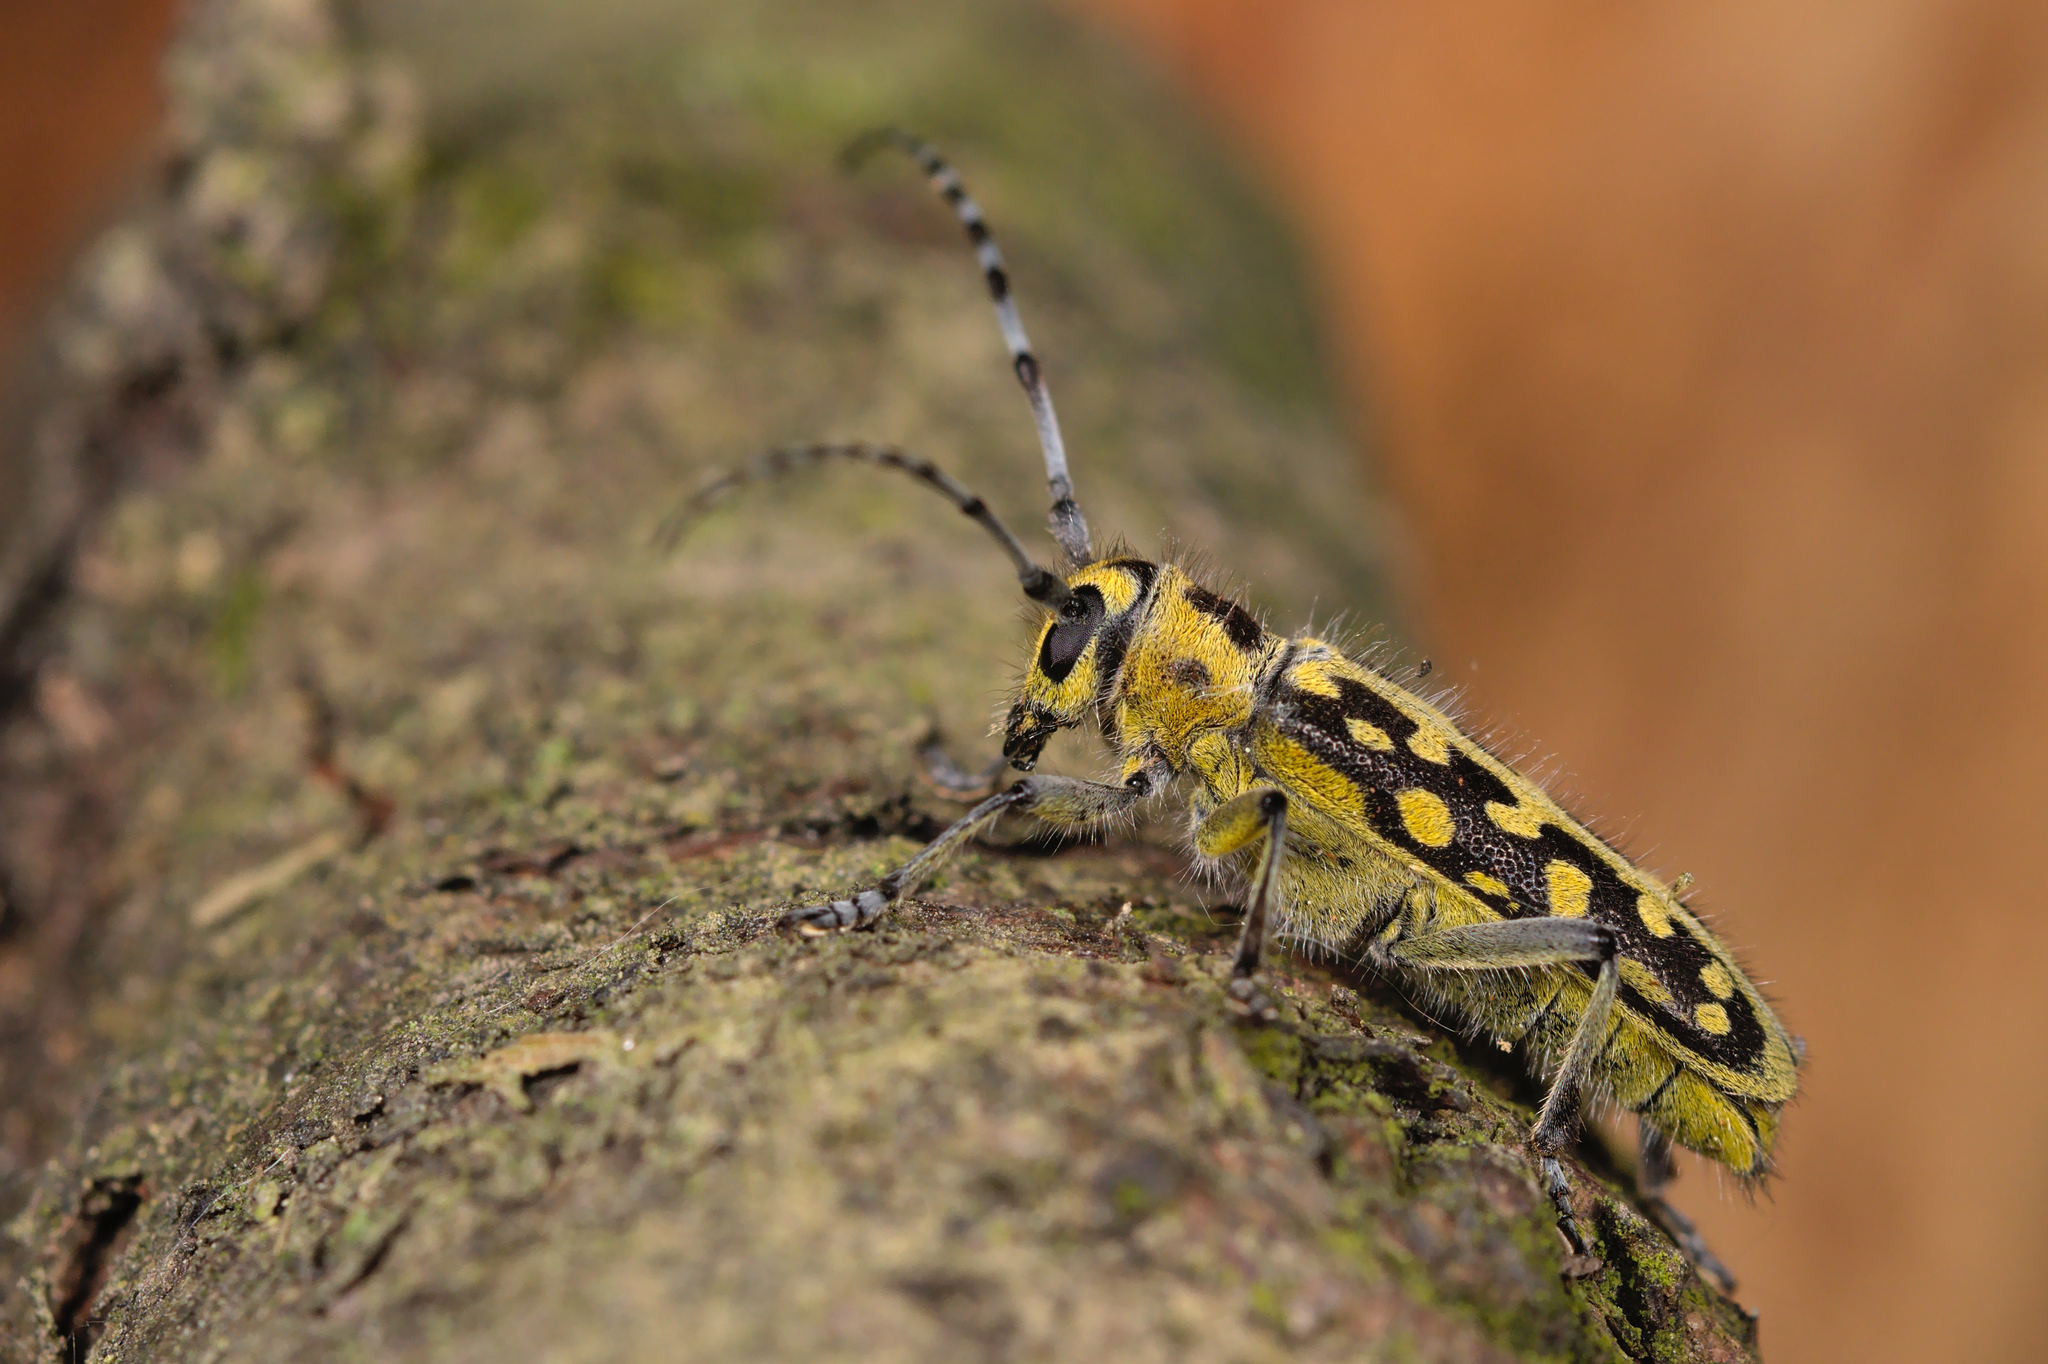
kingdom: Animalia
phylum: Arthropoda
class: Insecta
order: Coleoptera
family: Cerambycidae
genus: Saperda
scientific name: Saperda scalaris
